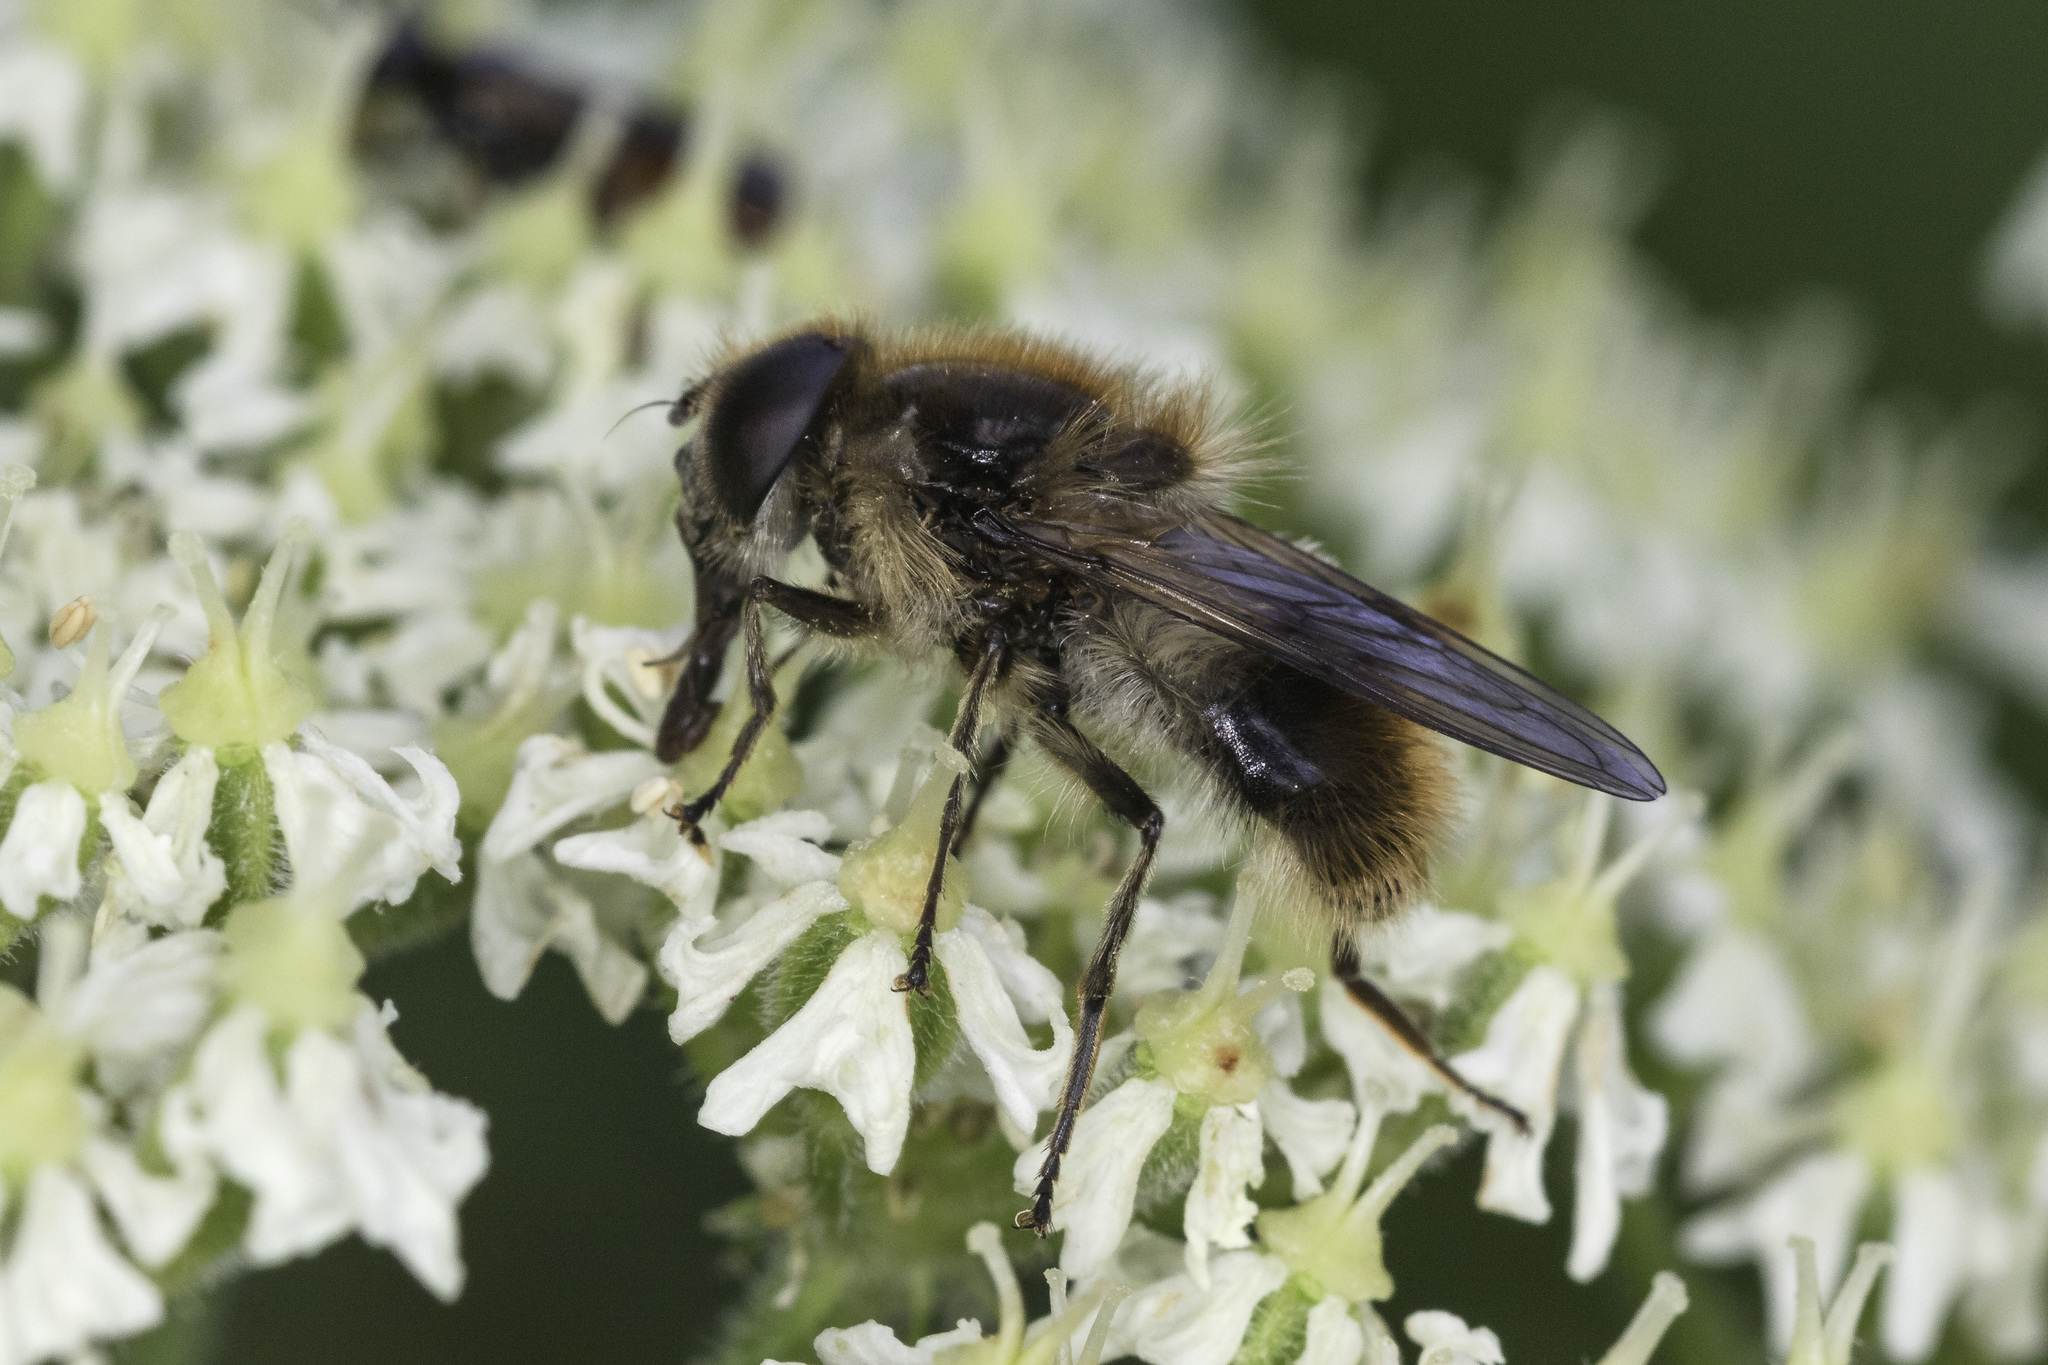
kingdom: Animalia
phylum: Arthropoda
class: Insecta
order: Diptera
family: Syrphidae
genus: Cheilosia
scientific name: Cheilosia illustrata
